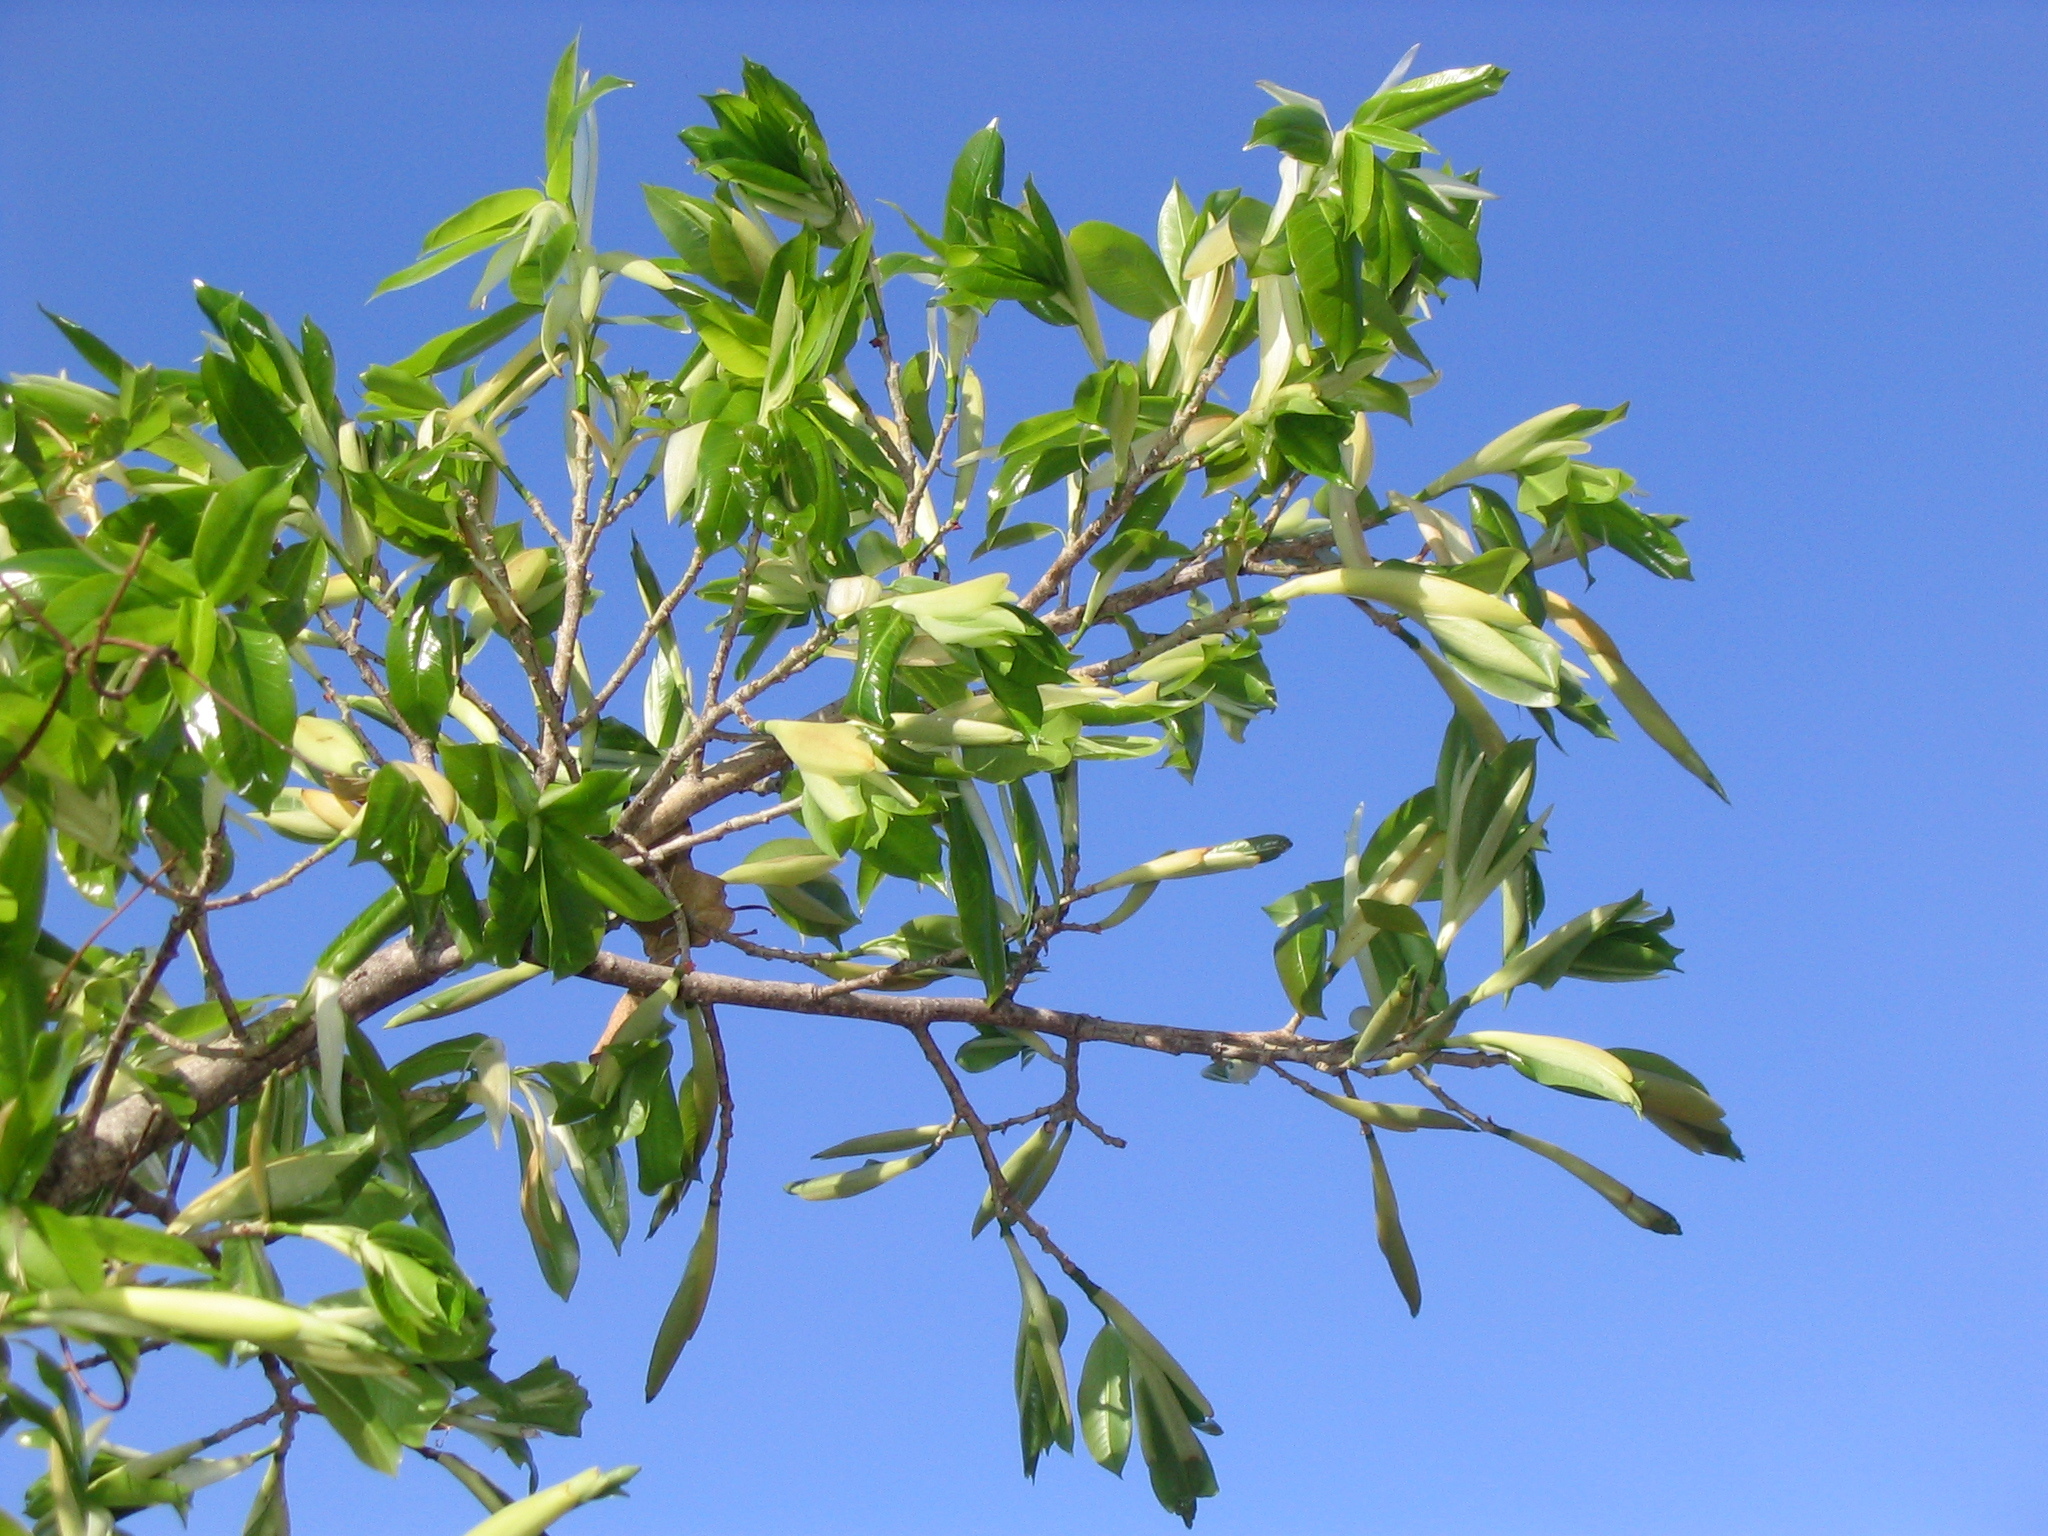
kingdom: Plantae
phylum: Tracheophyta
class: Magnoliopsida
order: Rosales
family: Moraceae
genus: Ficus
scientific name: Ficus virens
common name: Spotted fig
